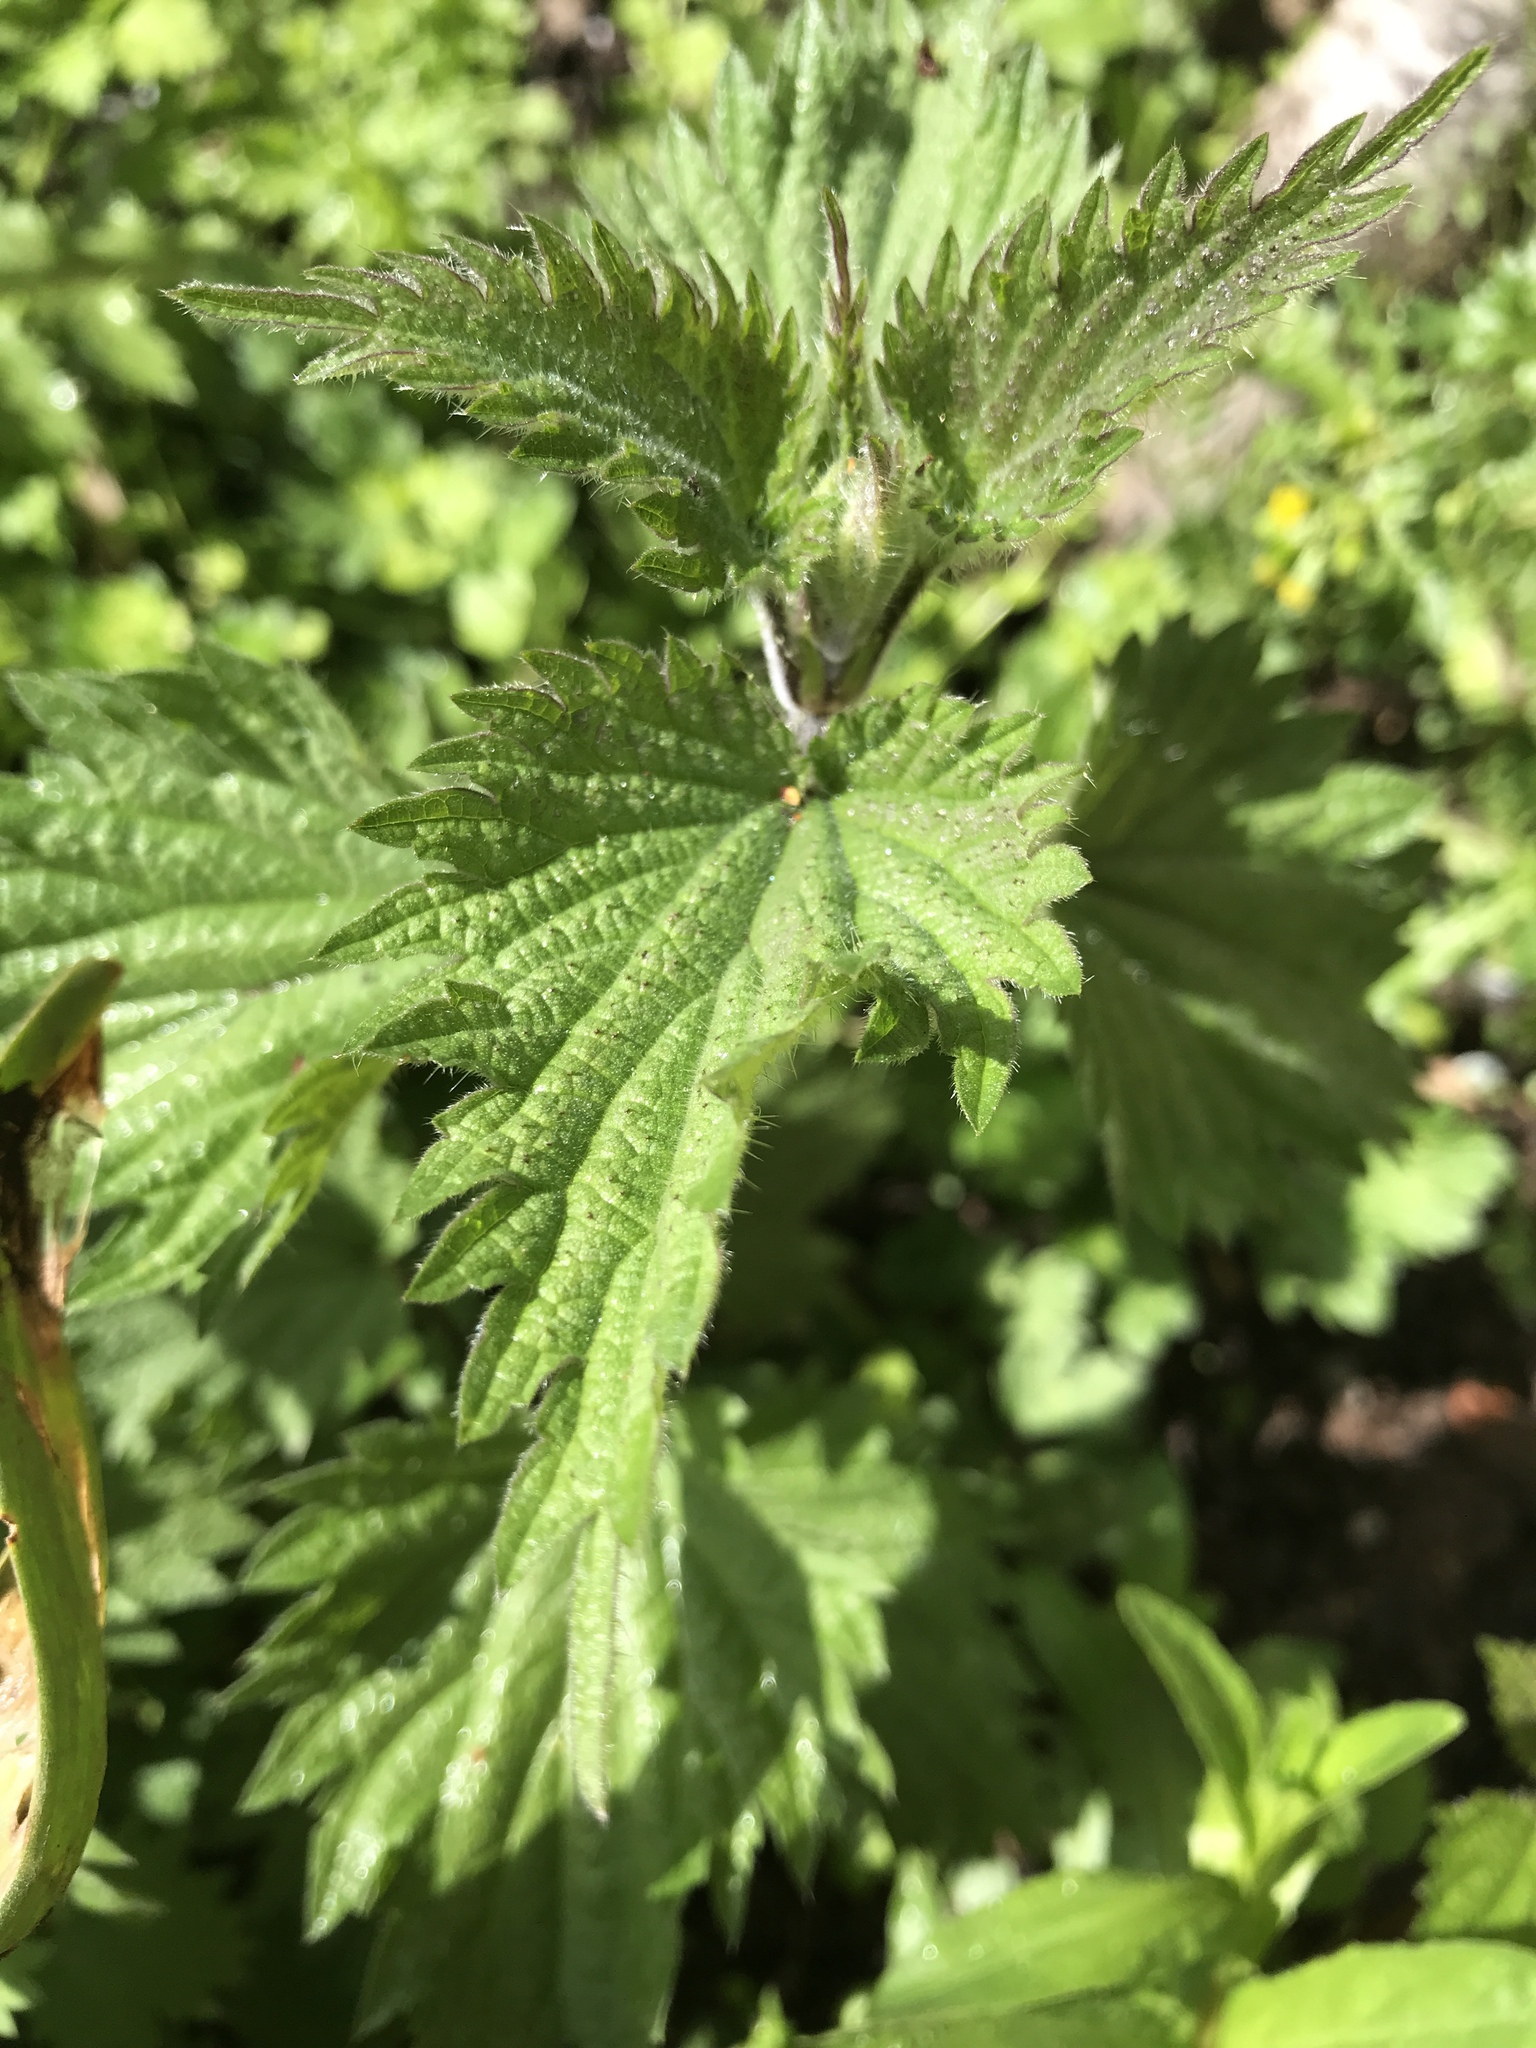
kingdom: Plantae
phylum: Tracheophyta
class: Magnoliopsida
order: Rosales
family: Urticaceae
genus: Urtica
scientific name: Urtica dioica
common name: Common nettle
